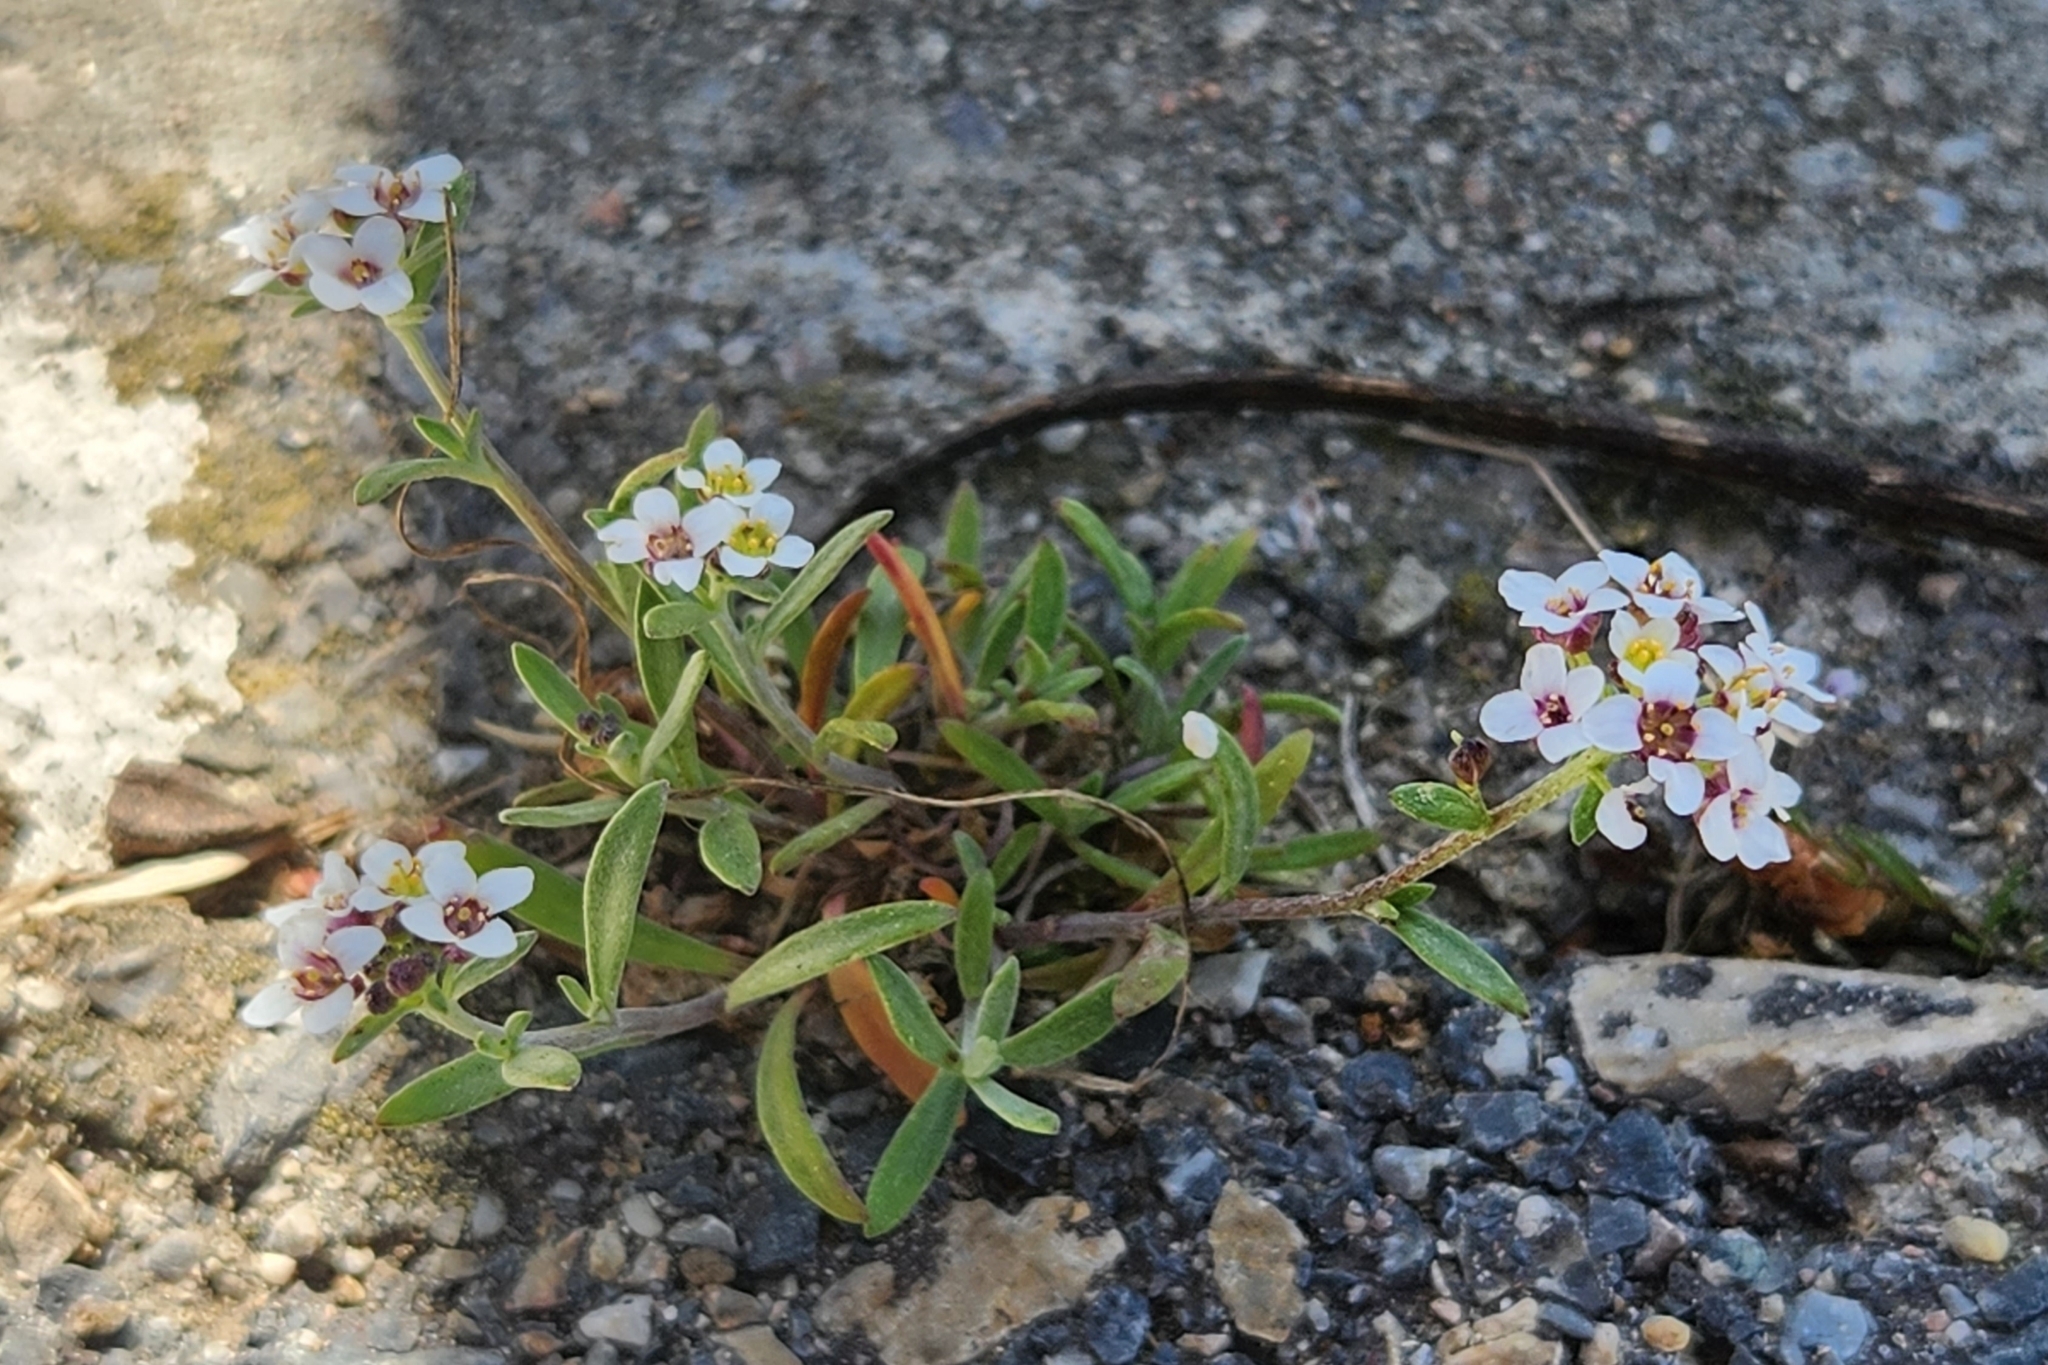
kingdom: Plantae
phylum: Tracheophyta
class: Magnoliopsida
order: Brassicales
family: Brassicaceae
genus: Lobularia
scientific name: Lobularia maritima
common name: Sweet alison
